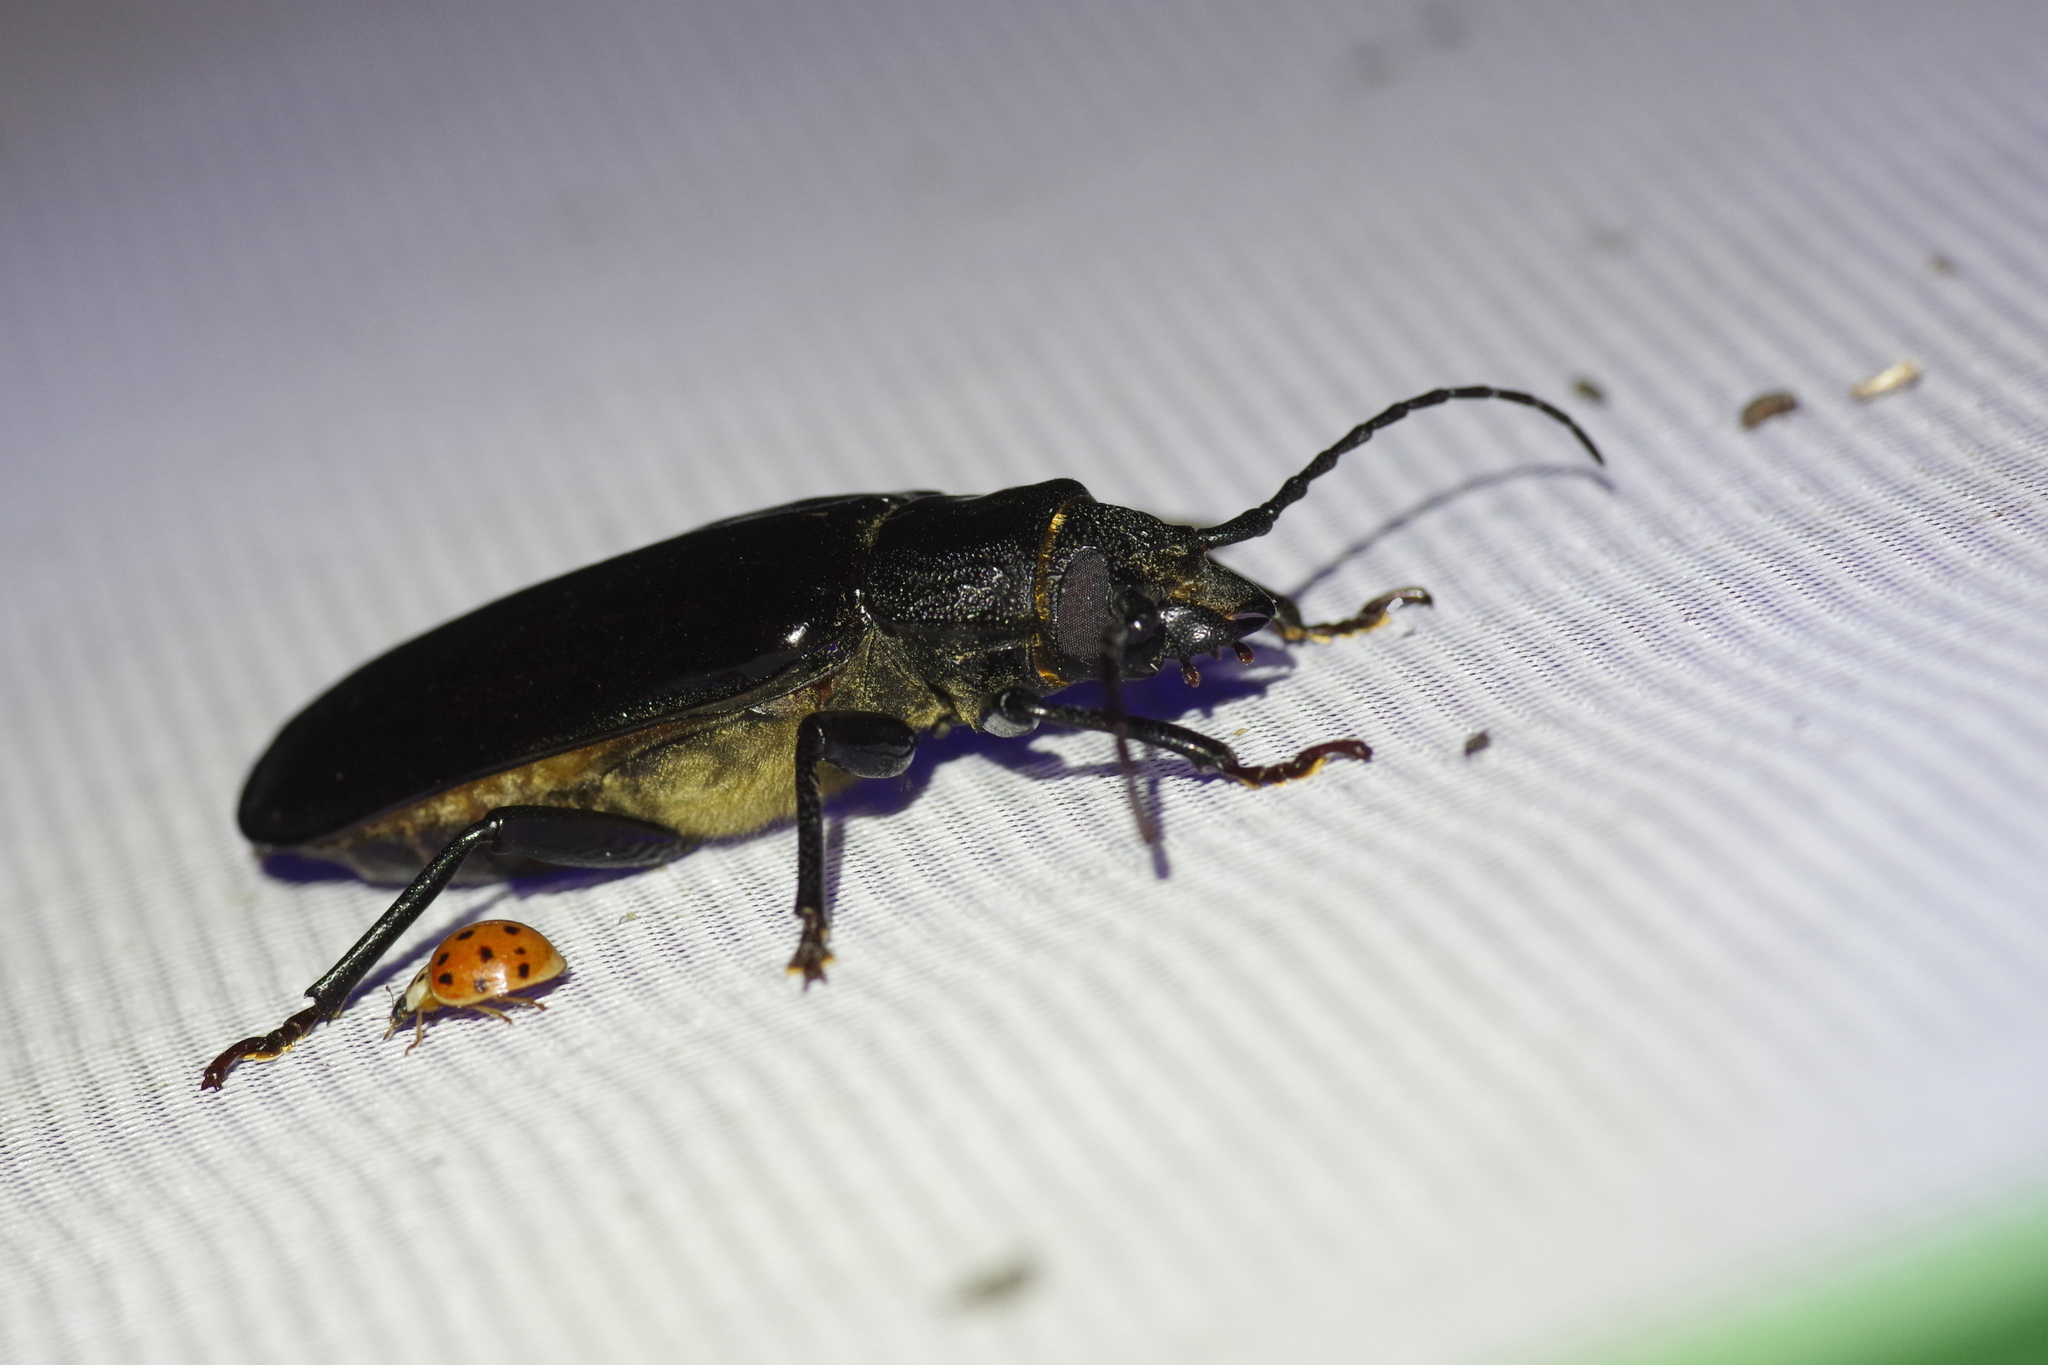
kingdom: Animalia
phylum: Arthropoda
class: Insecta
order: Coleoptera
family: Cerambycidae
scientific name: Cerambycidae
